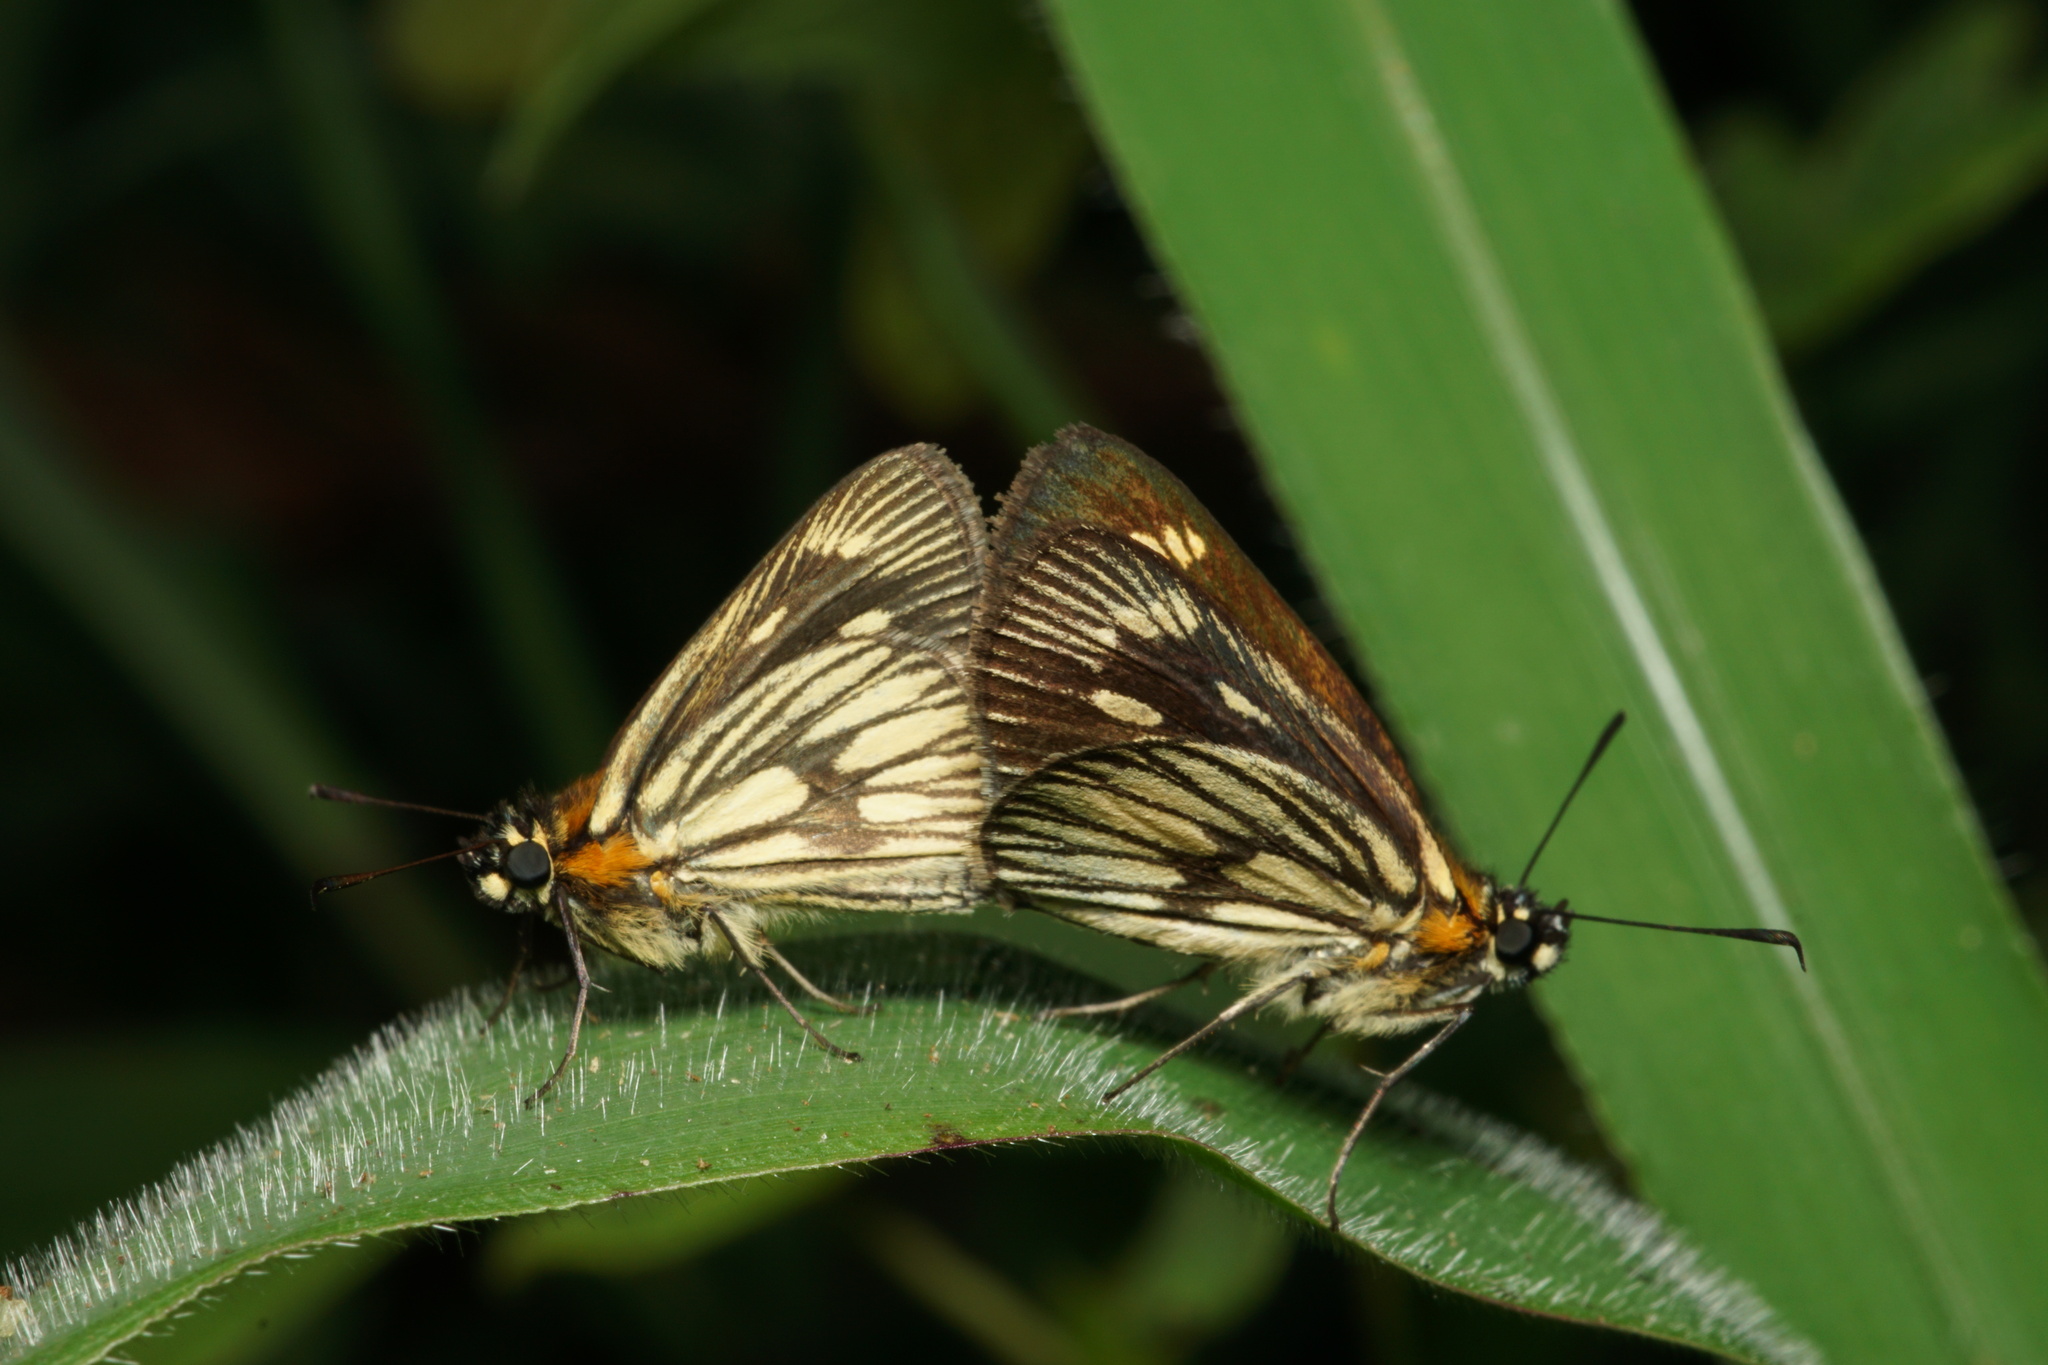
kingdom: Animalia
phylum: Arthropoda
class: Insecta
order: Lepidoptera
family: Hesperiidae
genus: Vehilius
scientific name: Vehilius clavicula
